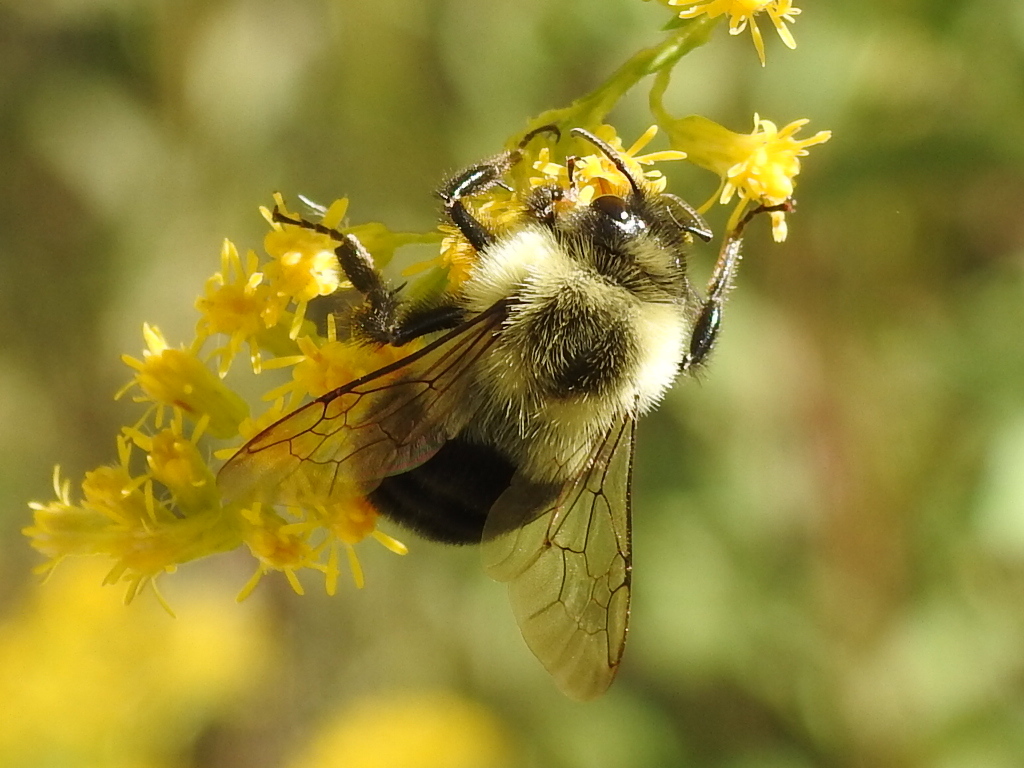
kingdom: Animalia
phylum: Arthropoda
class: Insecta
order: Hymenoptera
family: Apidae
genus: Bombus
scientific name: Bombus impatiens
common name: Common eastern bumble bee
